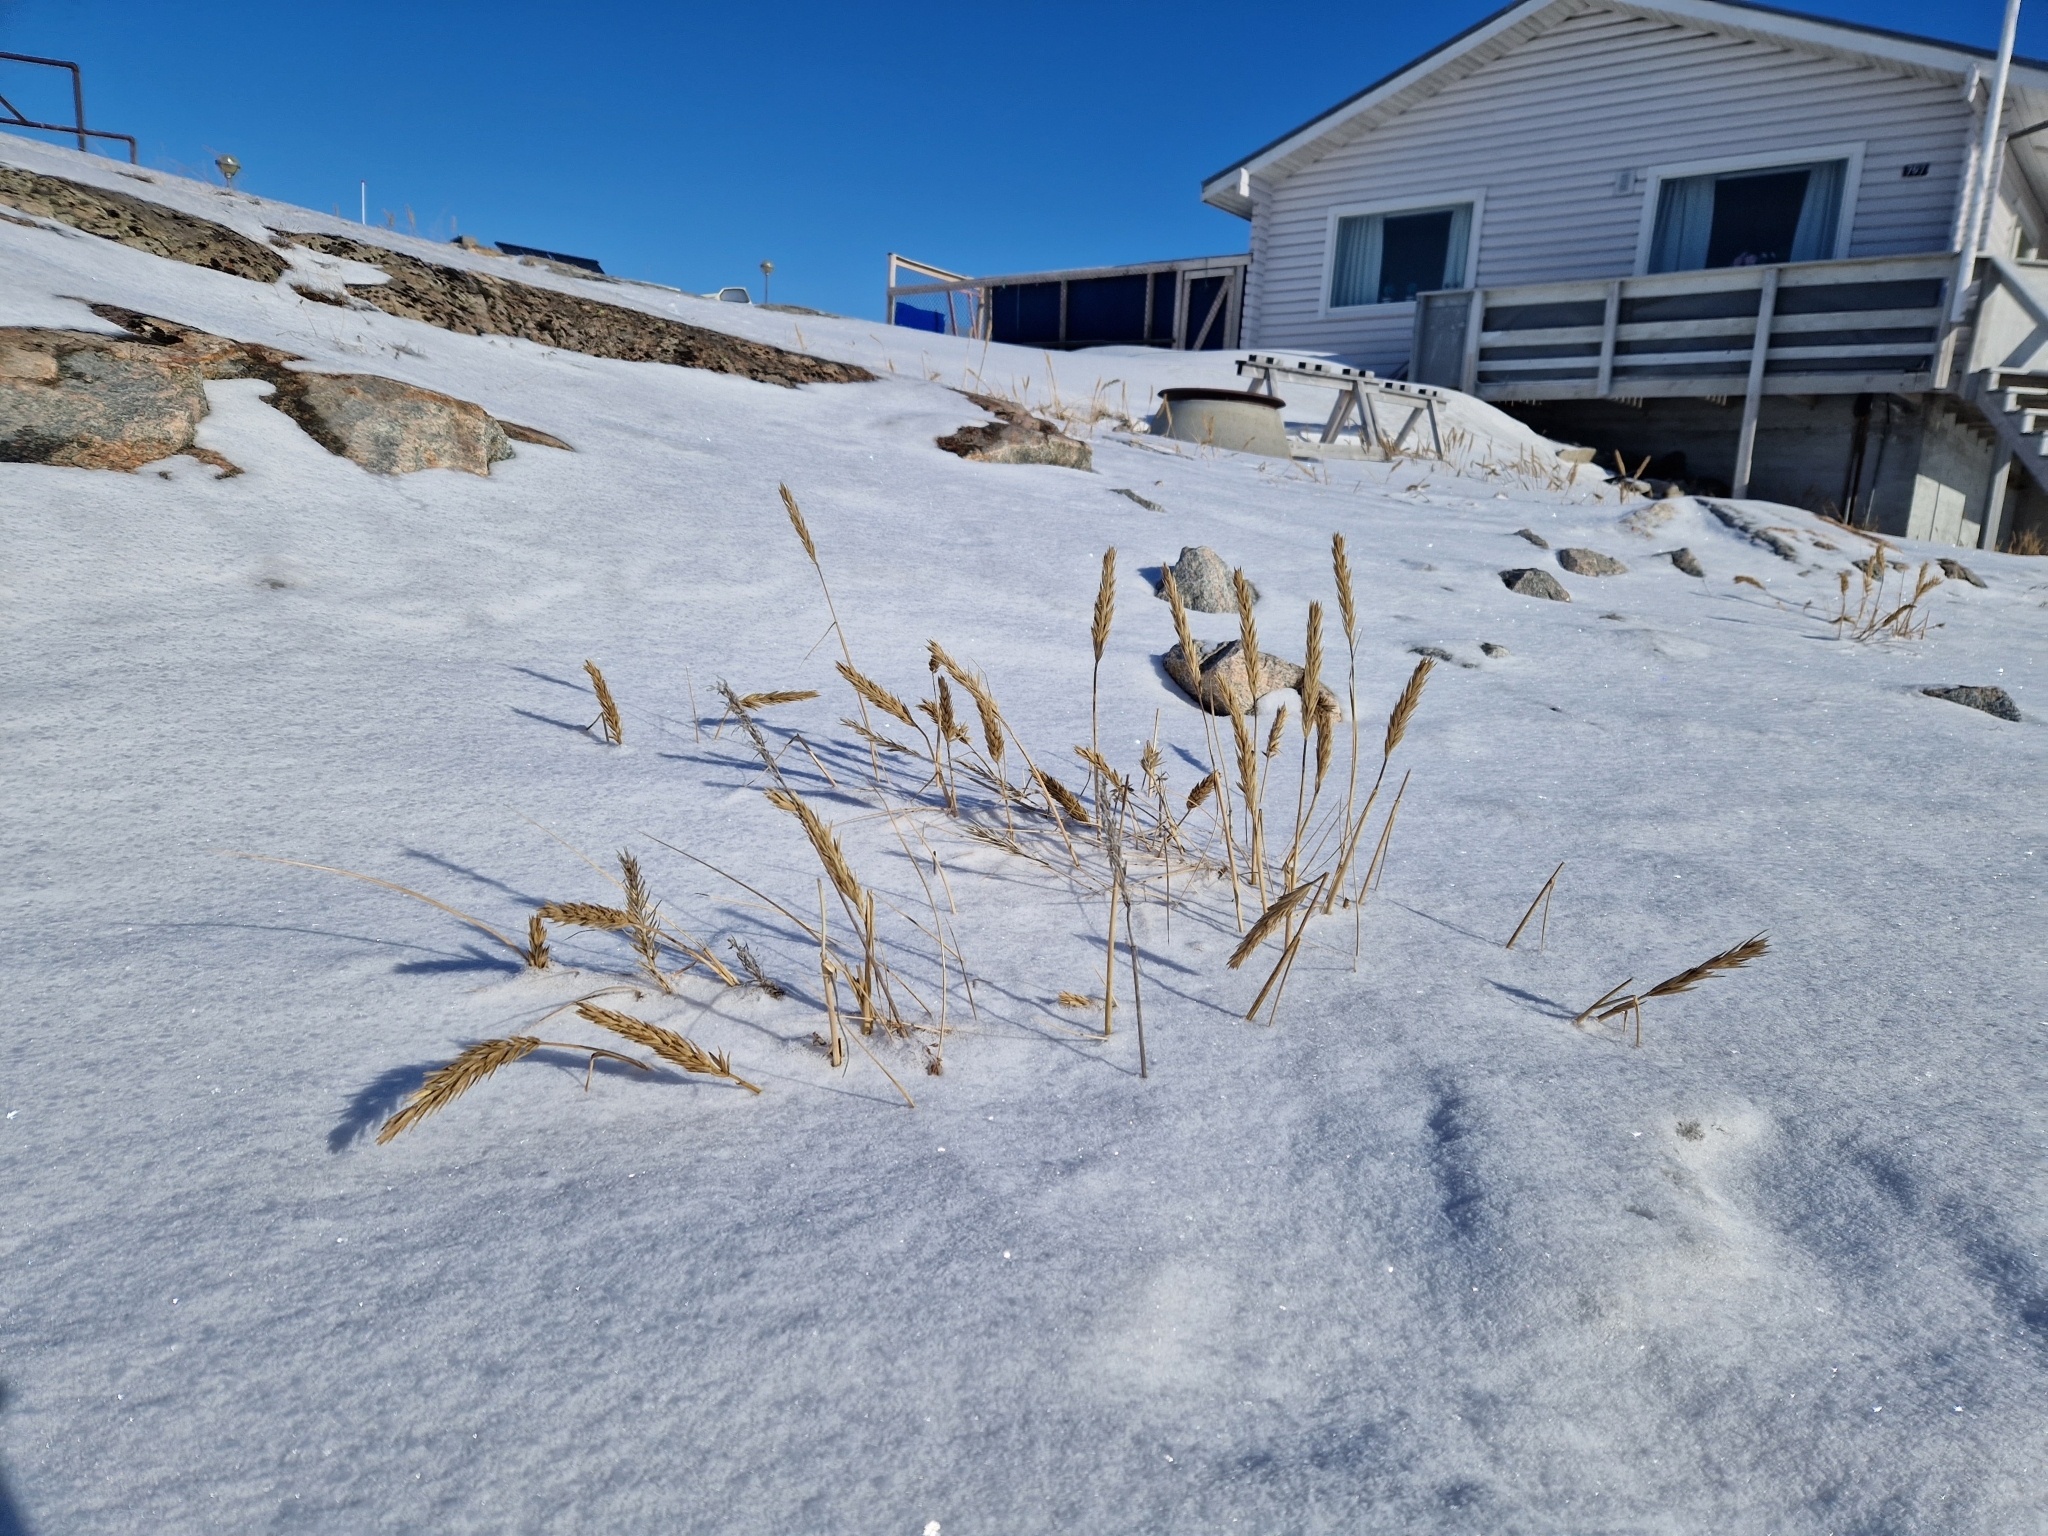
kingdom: Plantae
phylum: Tracheophyta
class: Liliopsida
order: Poales
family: Poaceae
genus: Leymus
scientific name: Leymus mollis
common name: American dune grass
